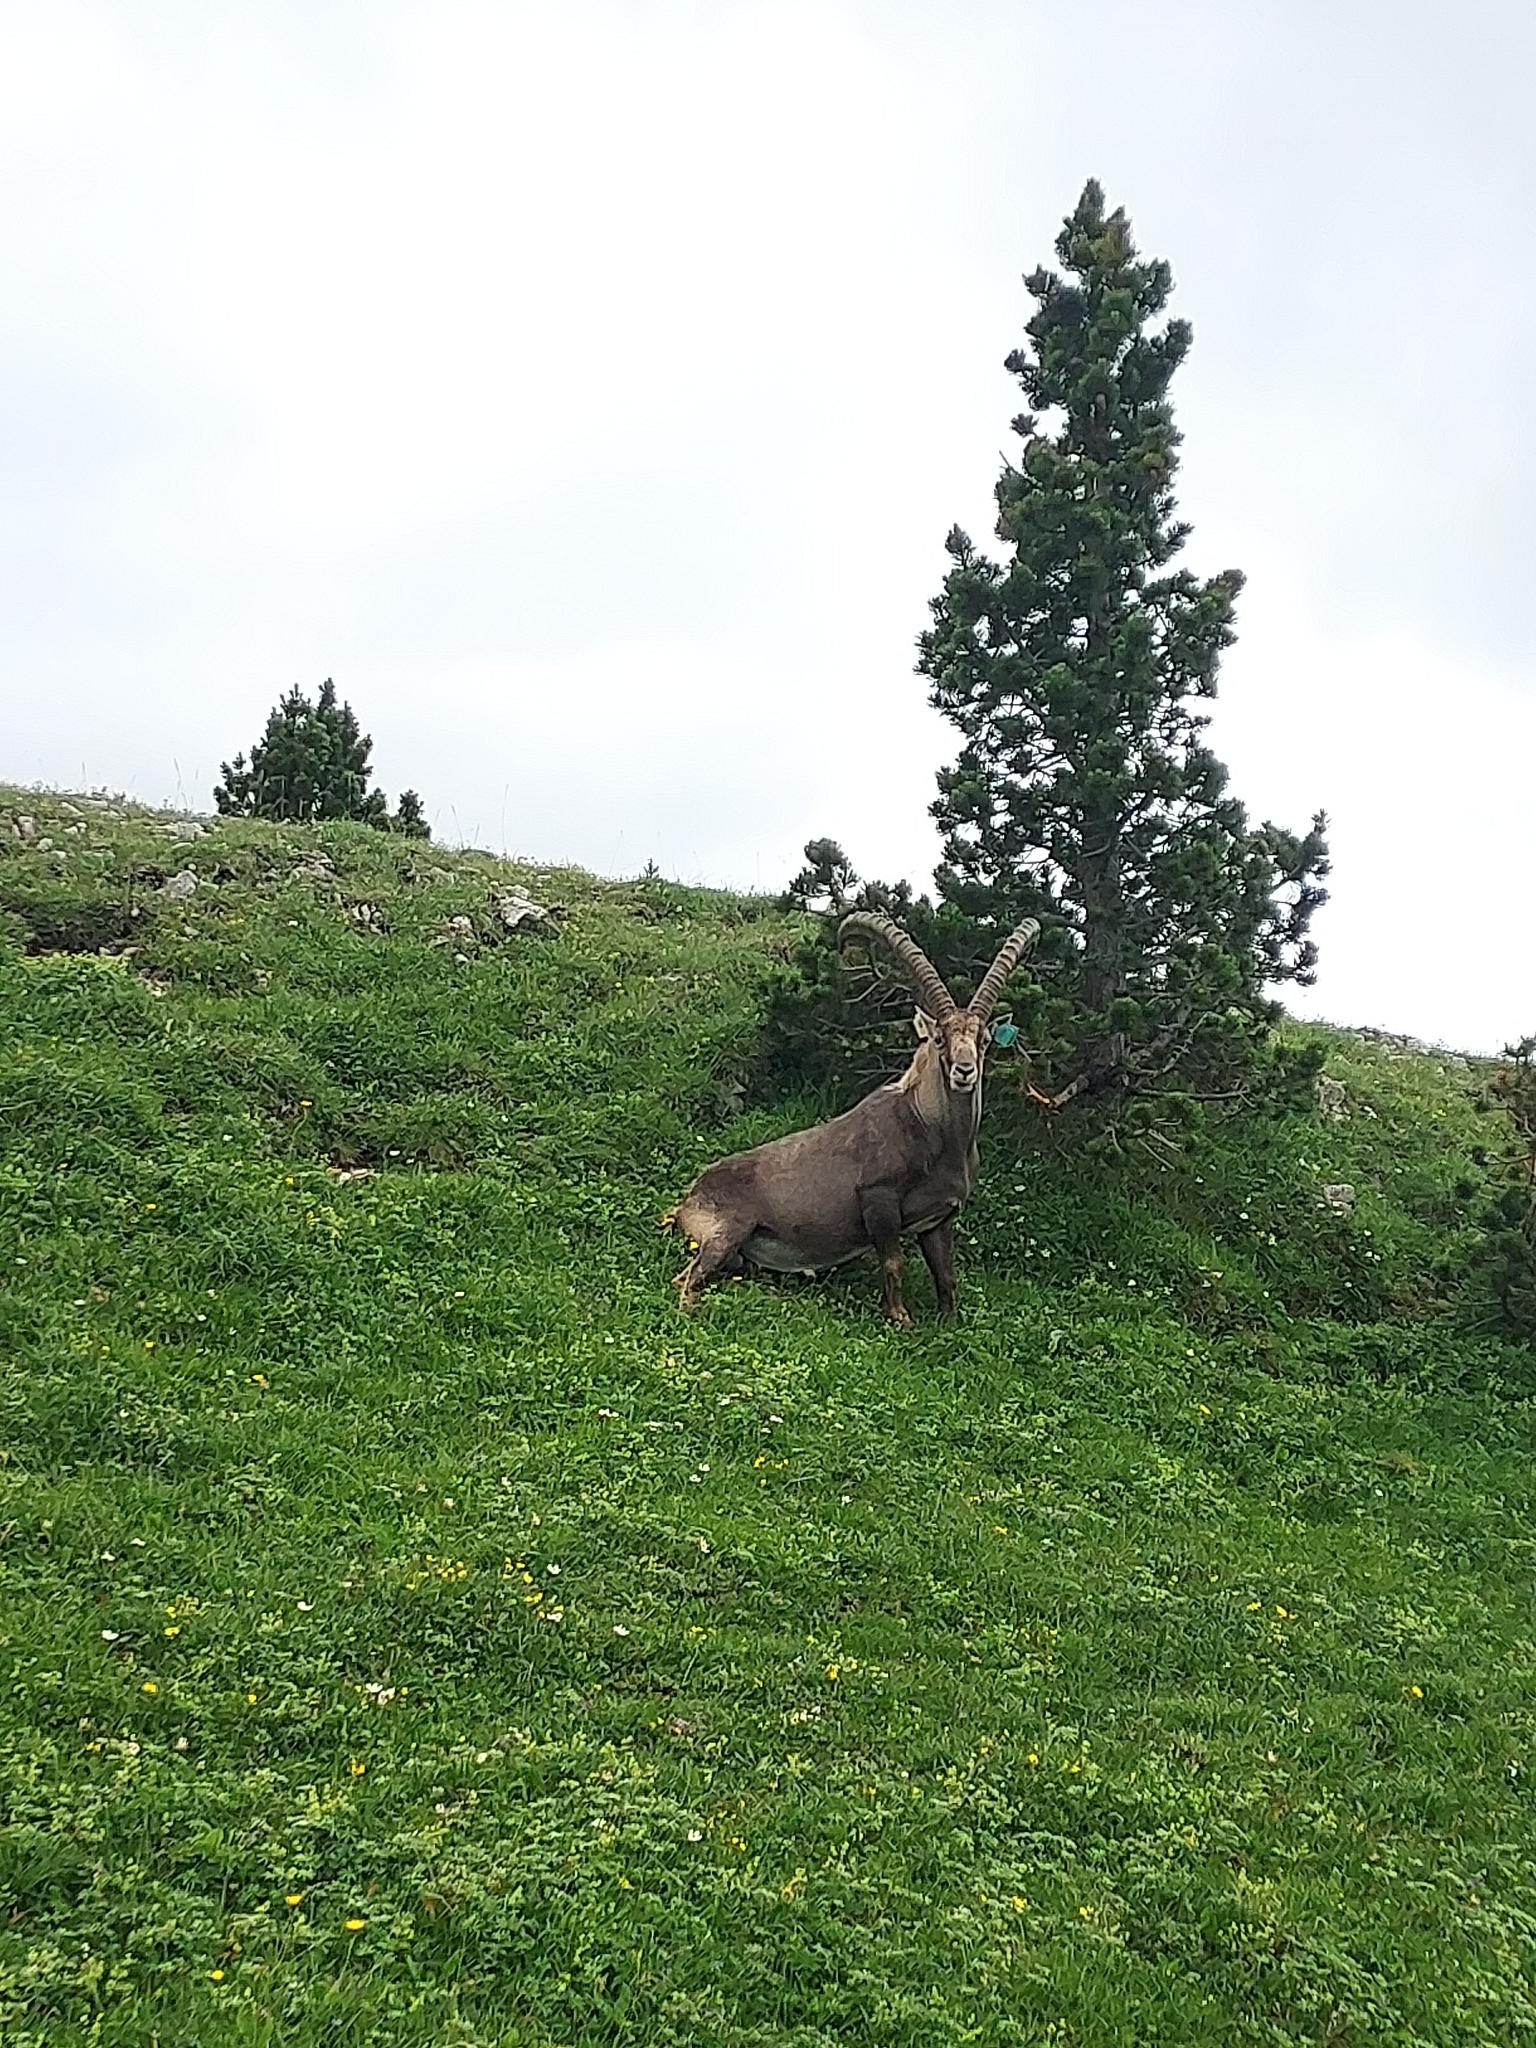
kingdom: Animalia
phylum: Chordata
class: Mammalia
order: Artiodactyla
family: Bovidae
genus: Capra
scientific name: Capra ibex
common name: Alpine ibex
